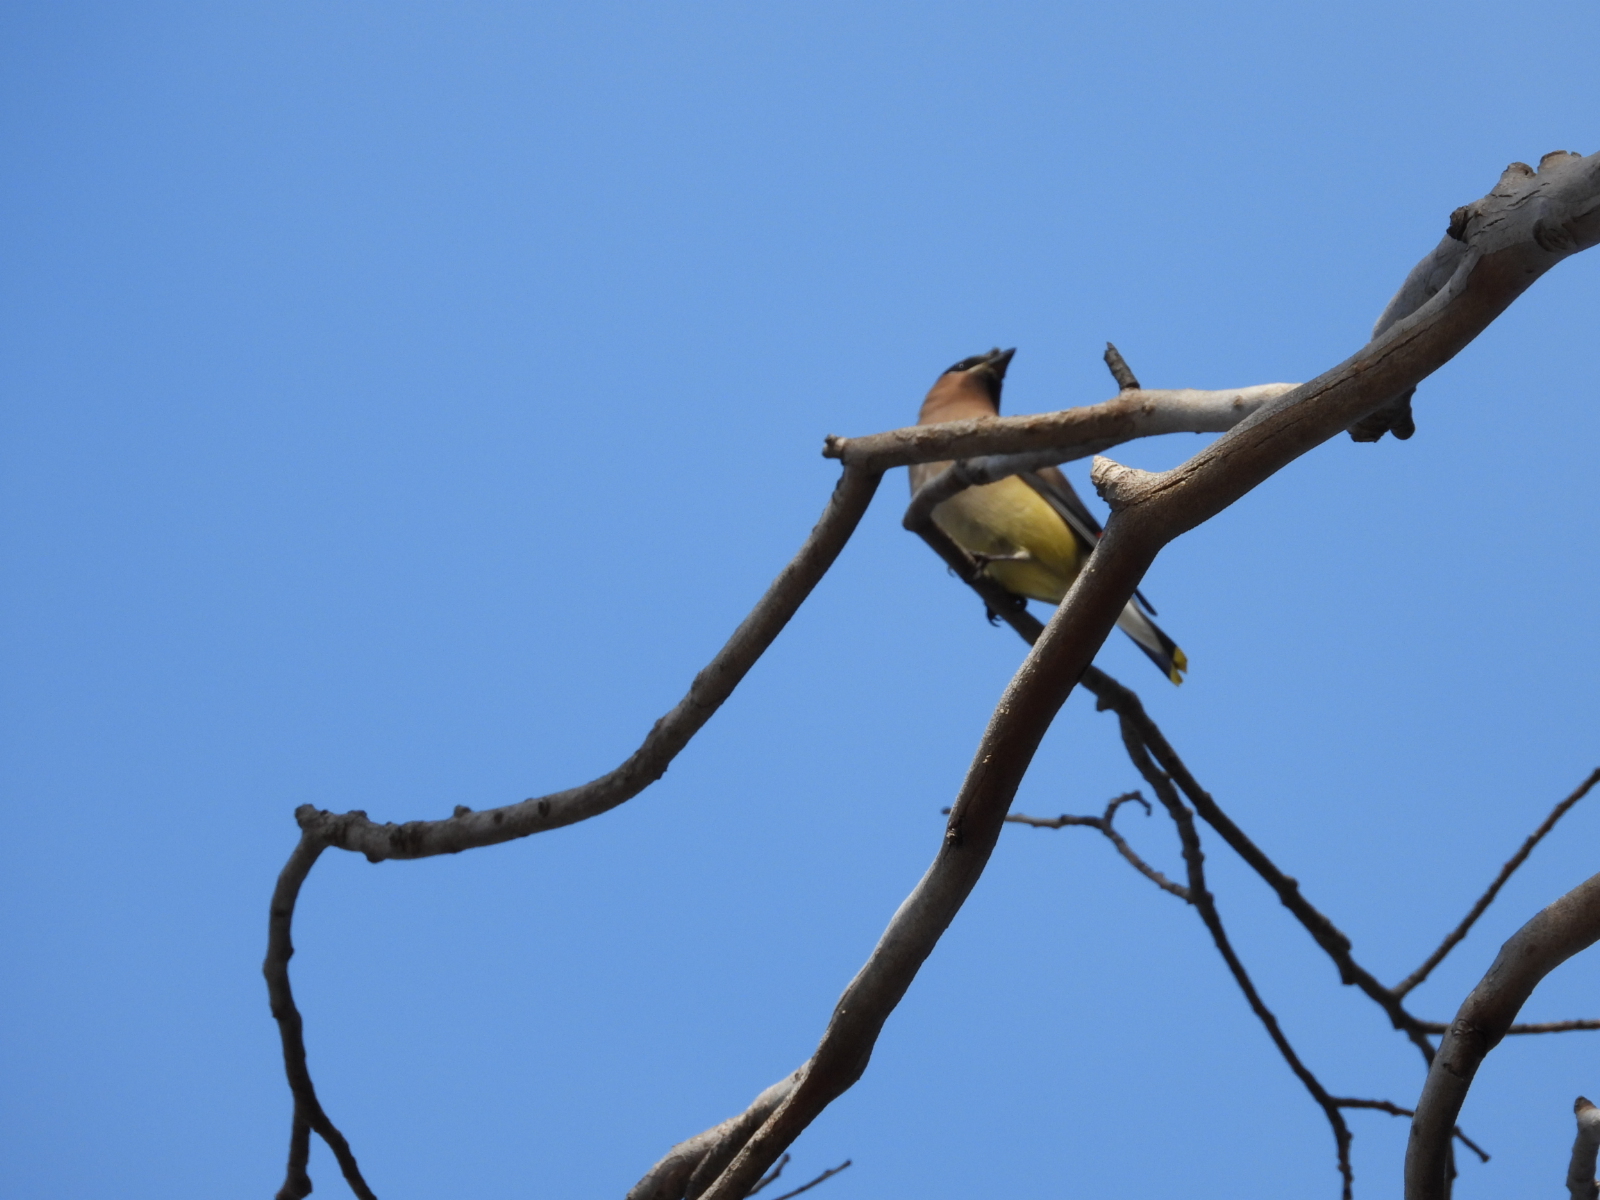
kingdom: Animalia
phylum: Chordata
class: Aves
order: Passeriformes
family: Bombycillidae
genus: Bombycilla
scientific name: Bombycilla cedrorum
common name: Cedar waxwing
